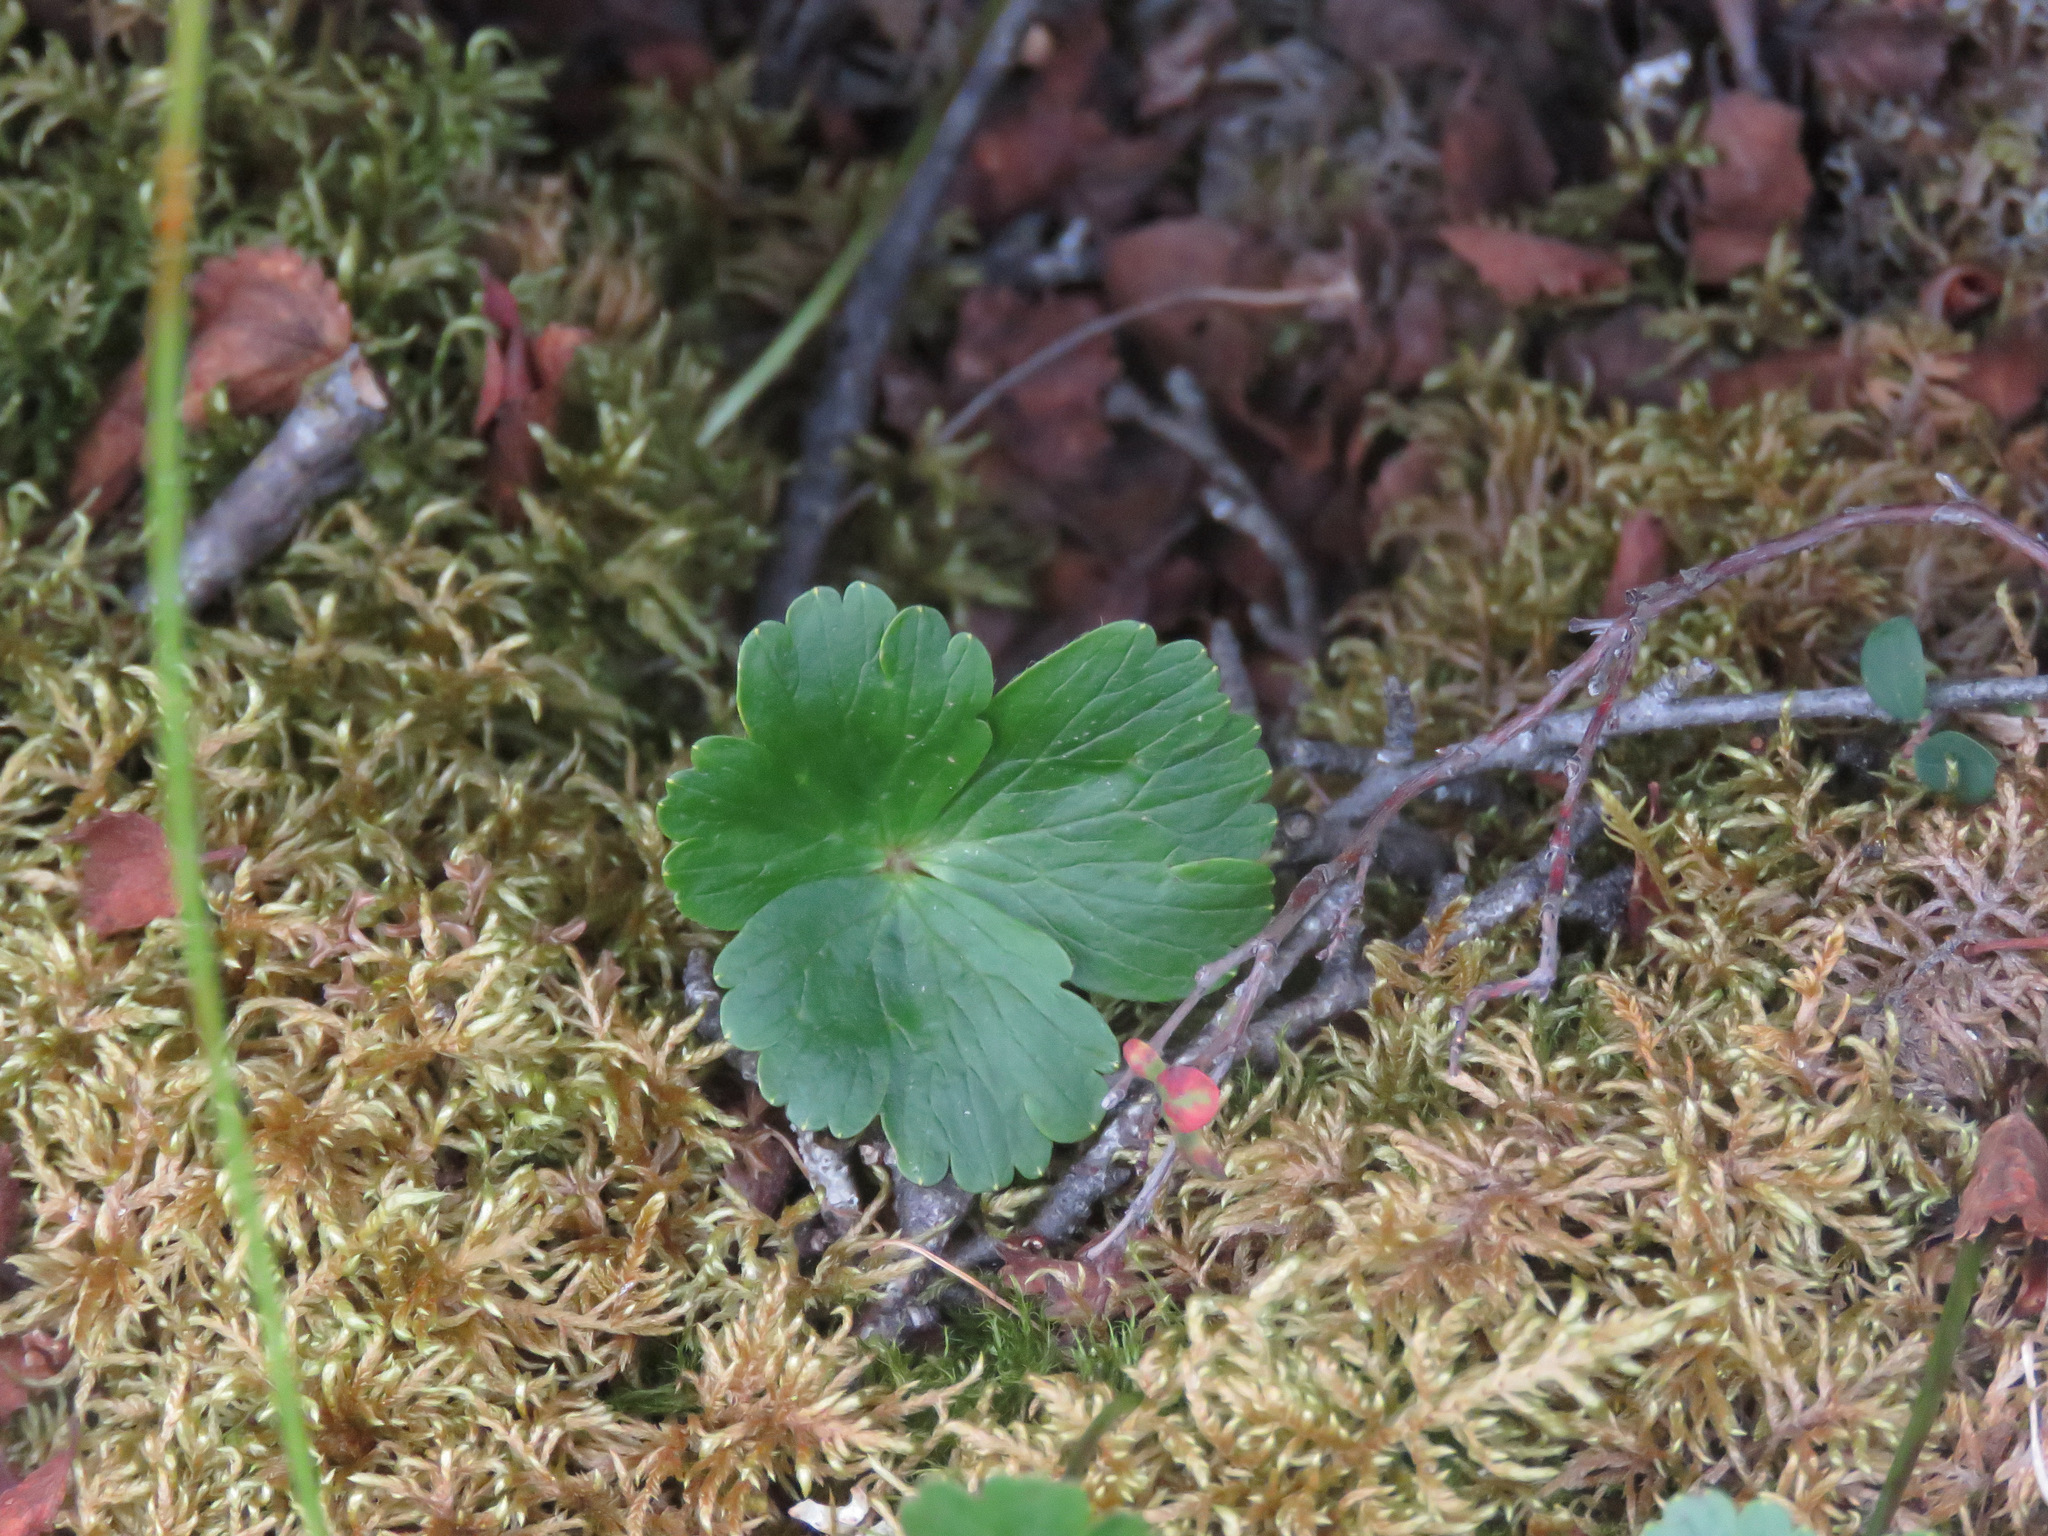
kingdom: Plantae
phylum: Tracheophyta
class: Magnoliopsida
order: Ranunculales
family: Ranunculaceae
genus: Anemone
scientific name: Anemone parviflora
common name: Northern anemone
